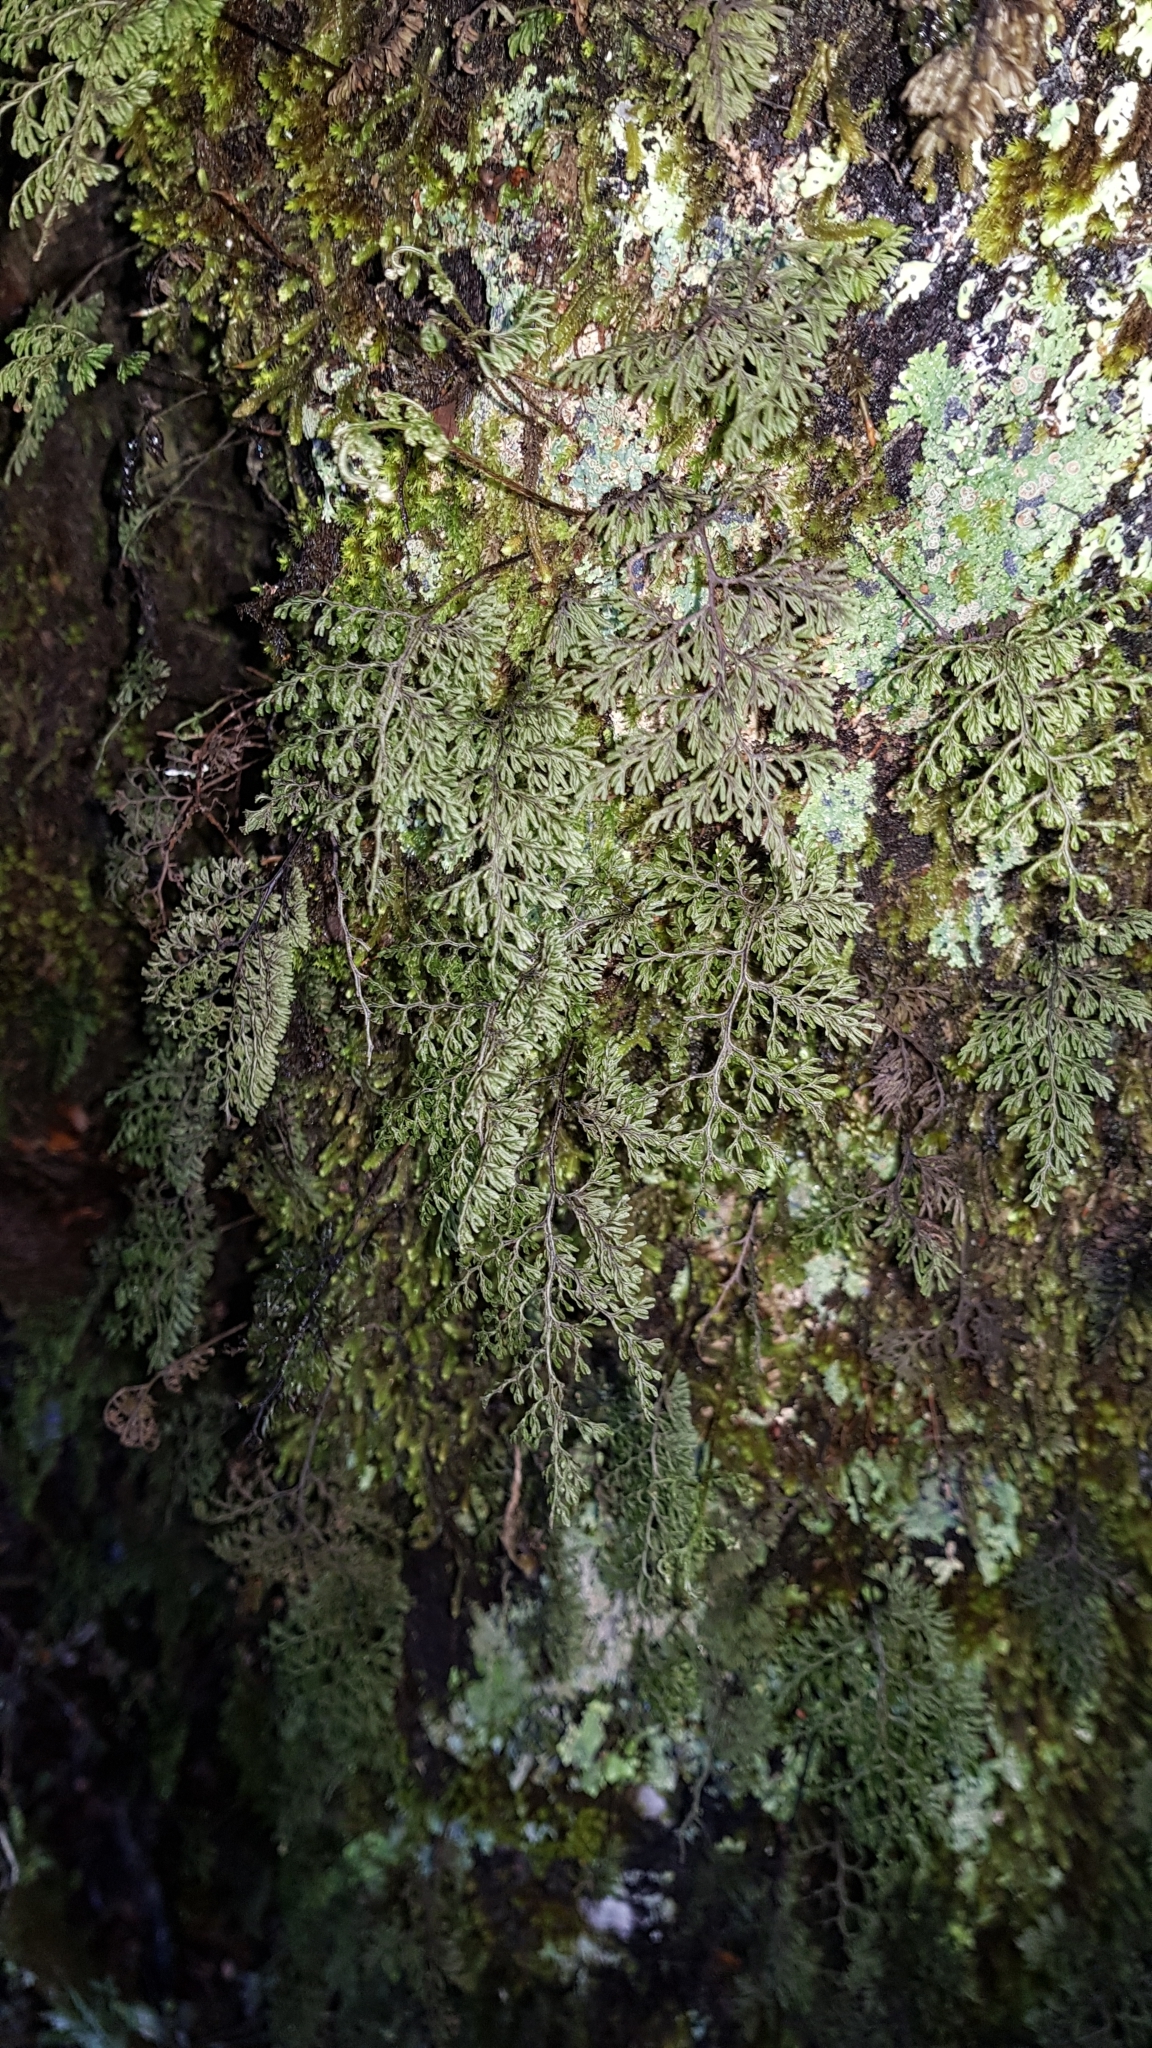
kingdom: Plantae
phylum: Tracheophyta
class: Polypodiopsida
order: Hymenophyllales
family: Hymenophyllaceae
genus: Hymenophyllum
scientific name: Hymenophyllum villosum
